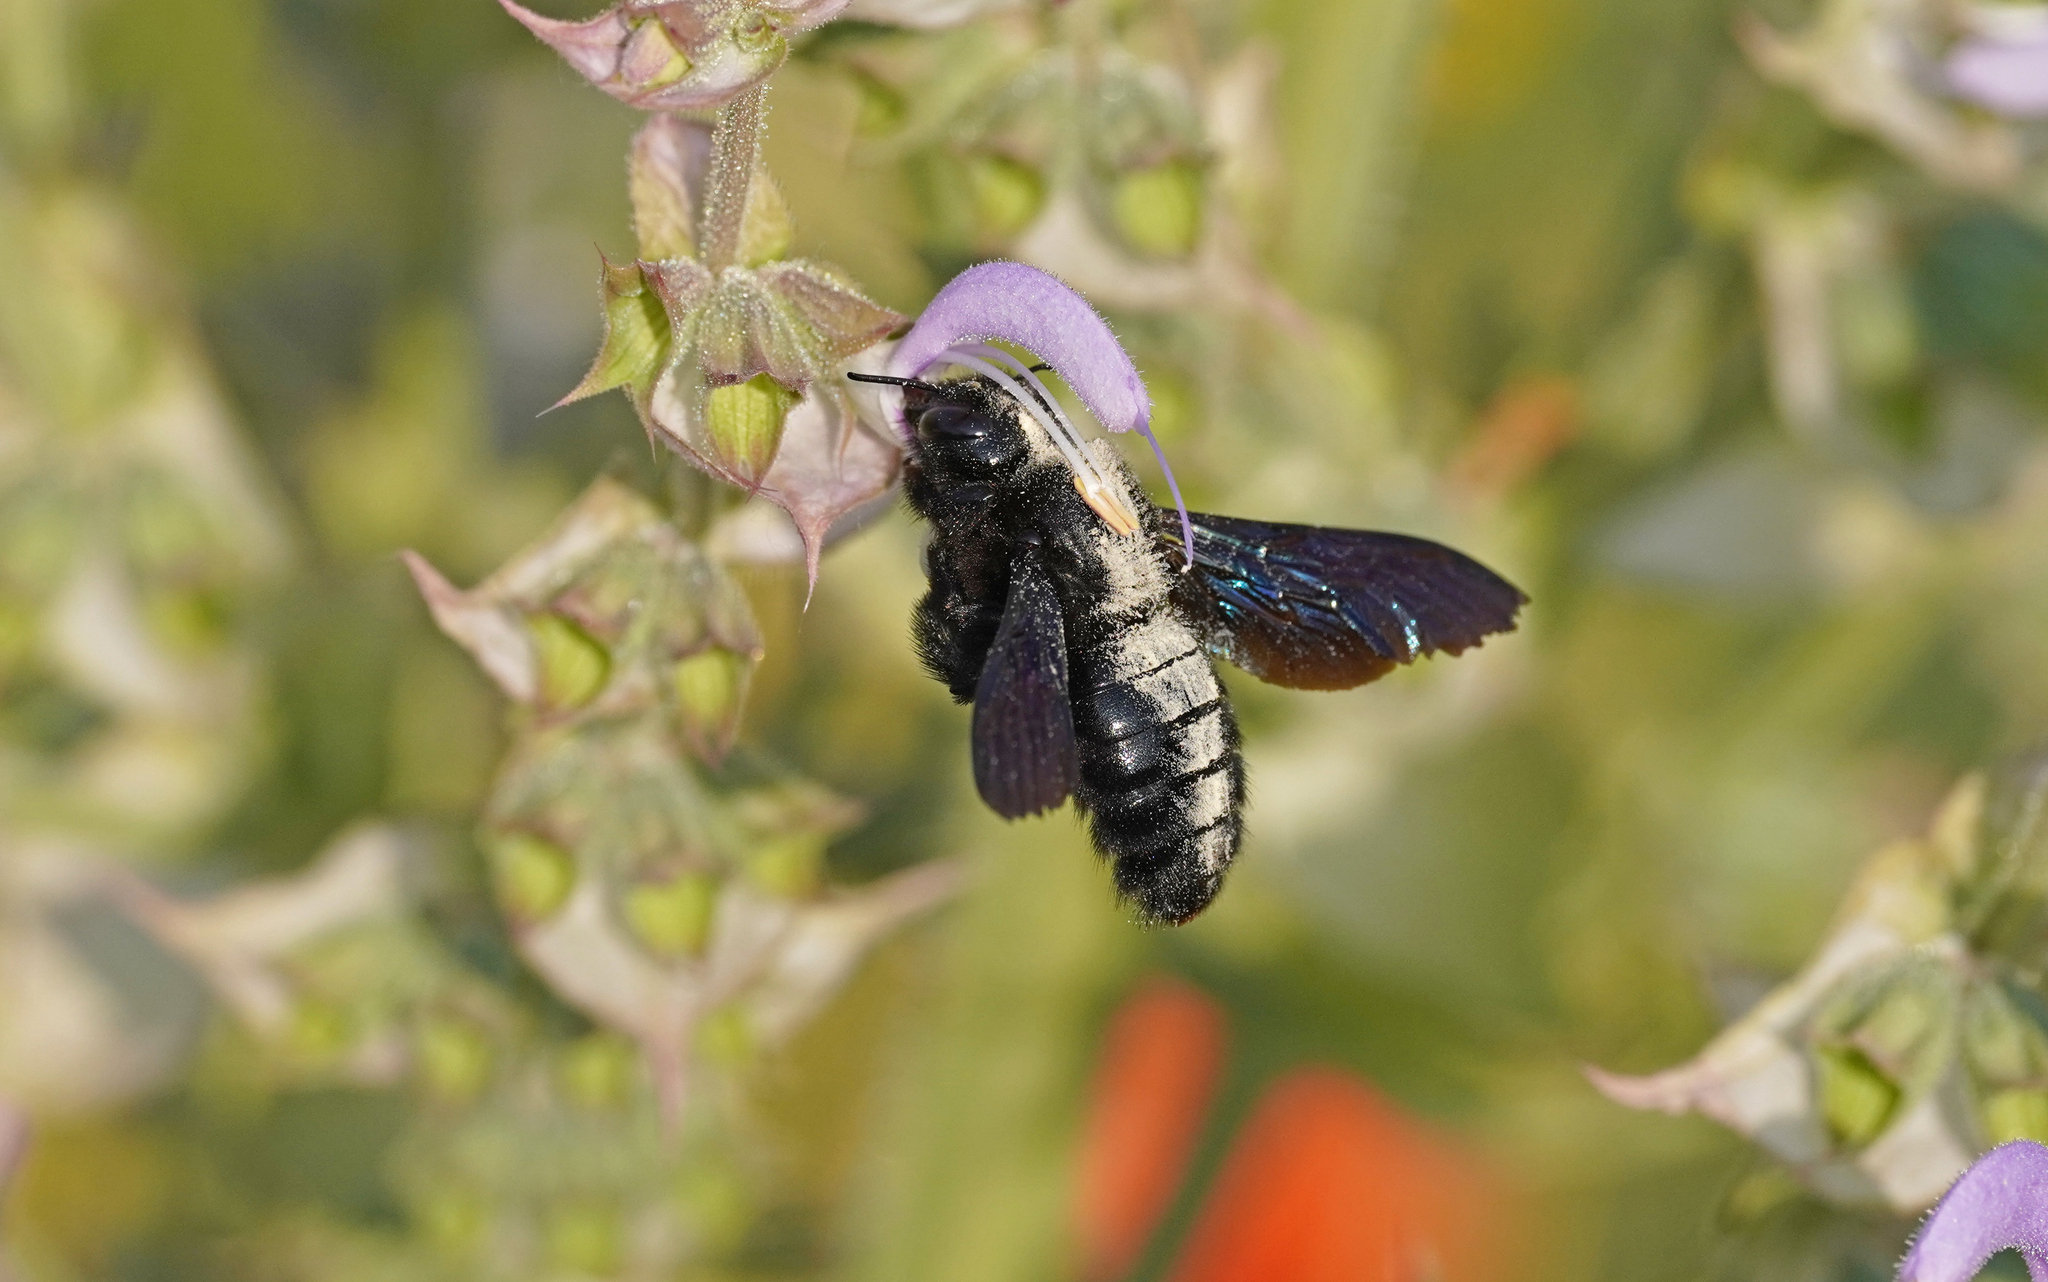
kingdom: Animalia
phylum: Arthropoda
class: Insecta
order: Hymenoptera
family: Apidae
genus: Xylocopa
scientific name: Xylocopa violacea
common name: Violet carpenter bee
